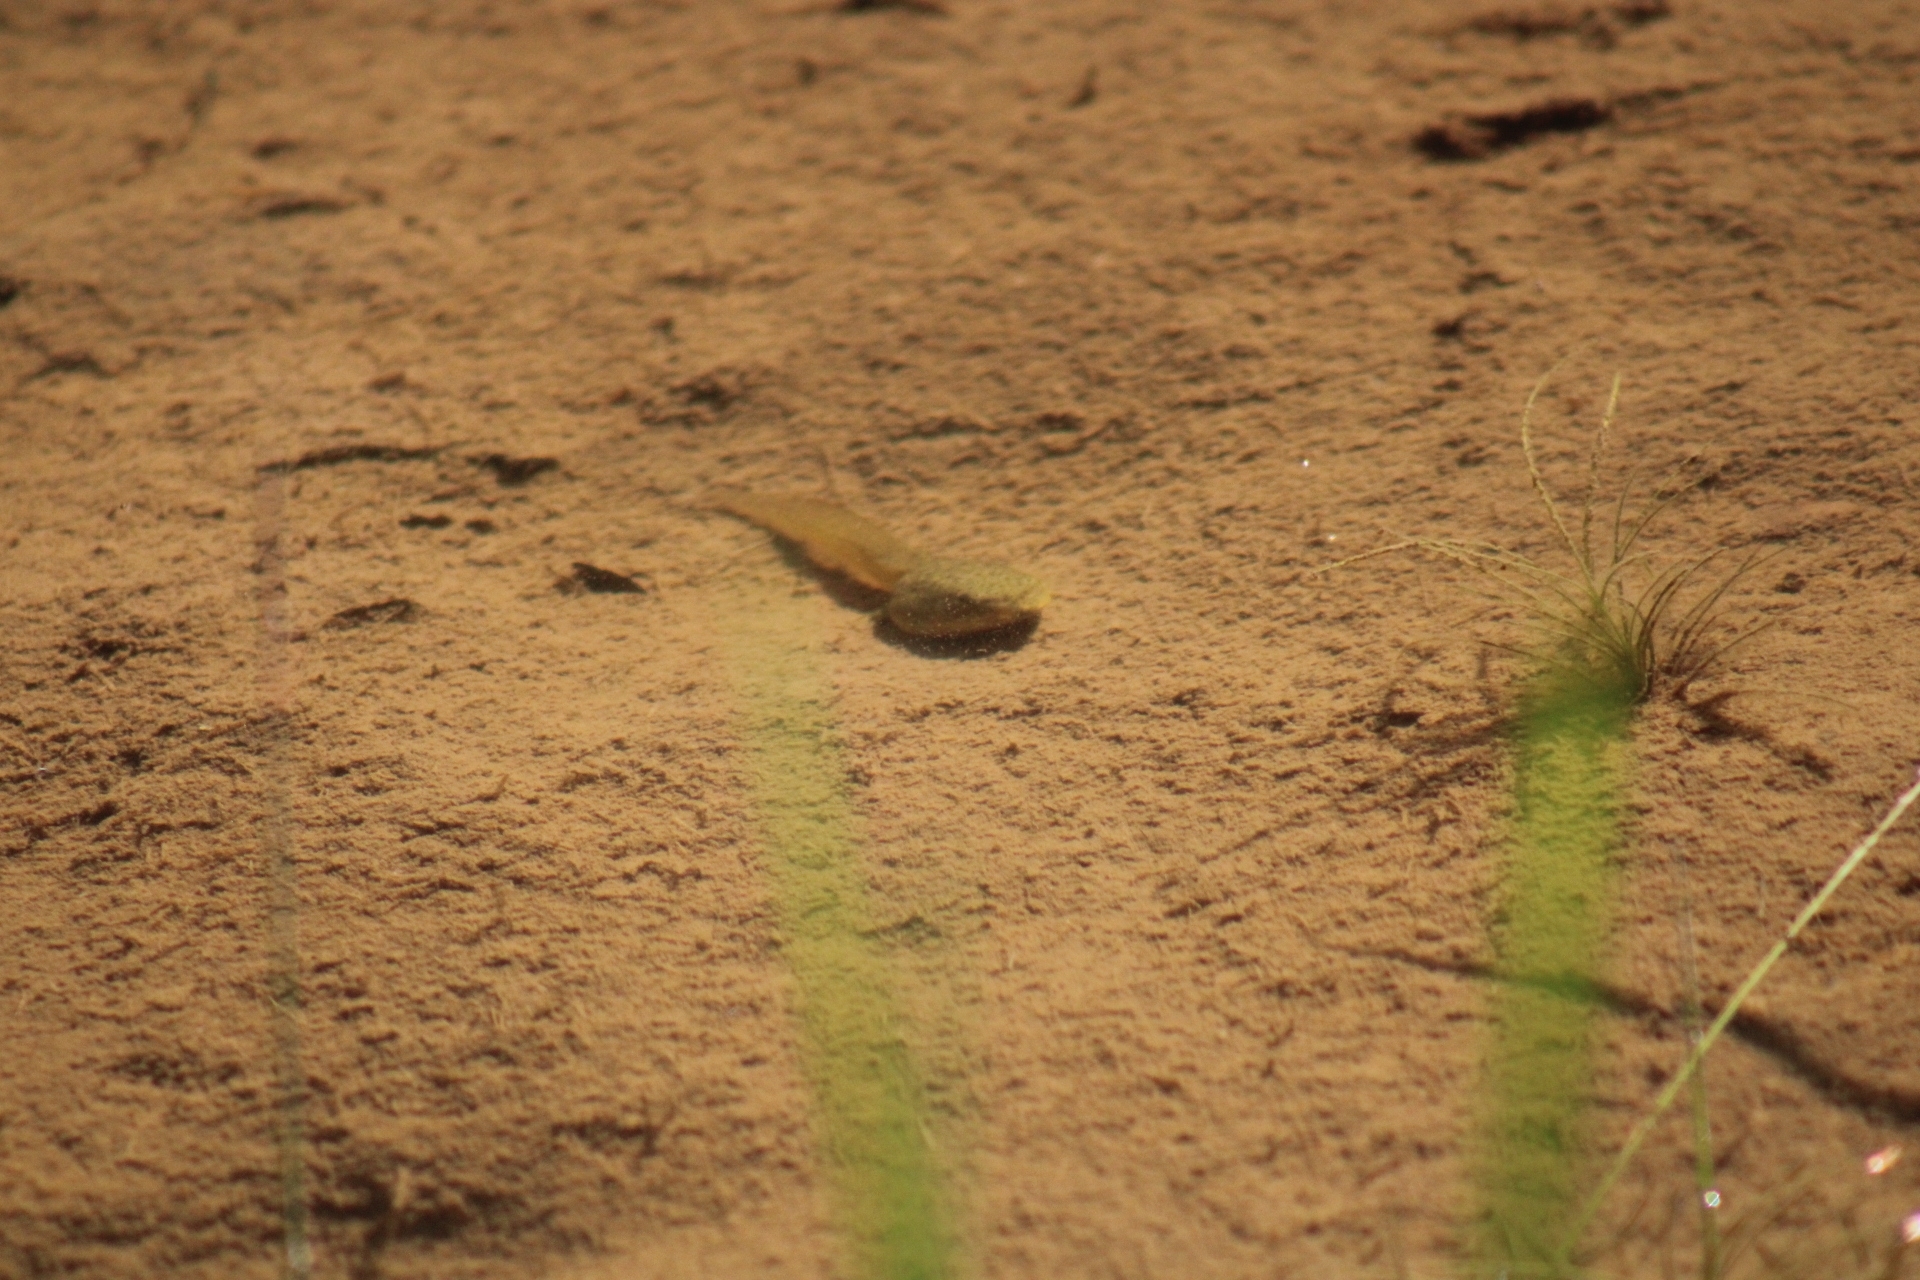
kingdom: Animalia
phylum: Chordata
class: Amphibia
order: Anura
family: Ranidae
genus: Lithobates
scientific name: Lithobates catesbeianus
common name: American bullfrog
